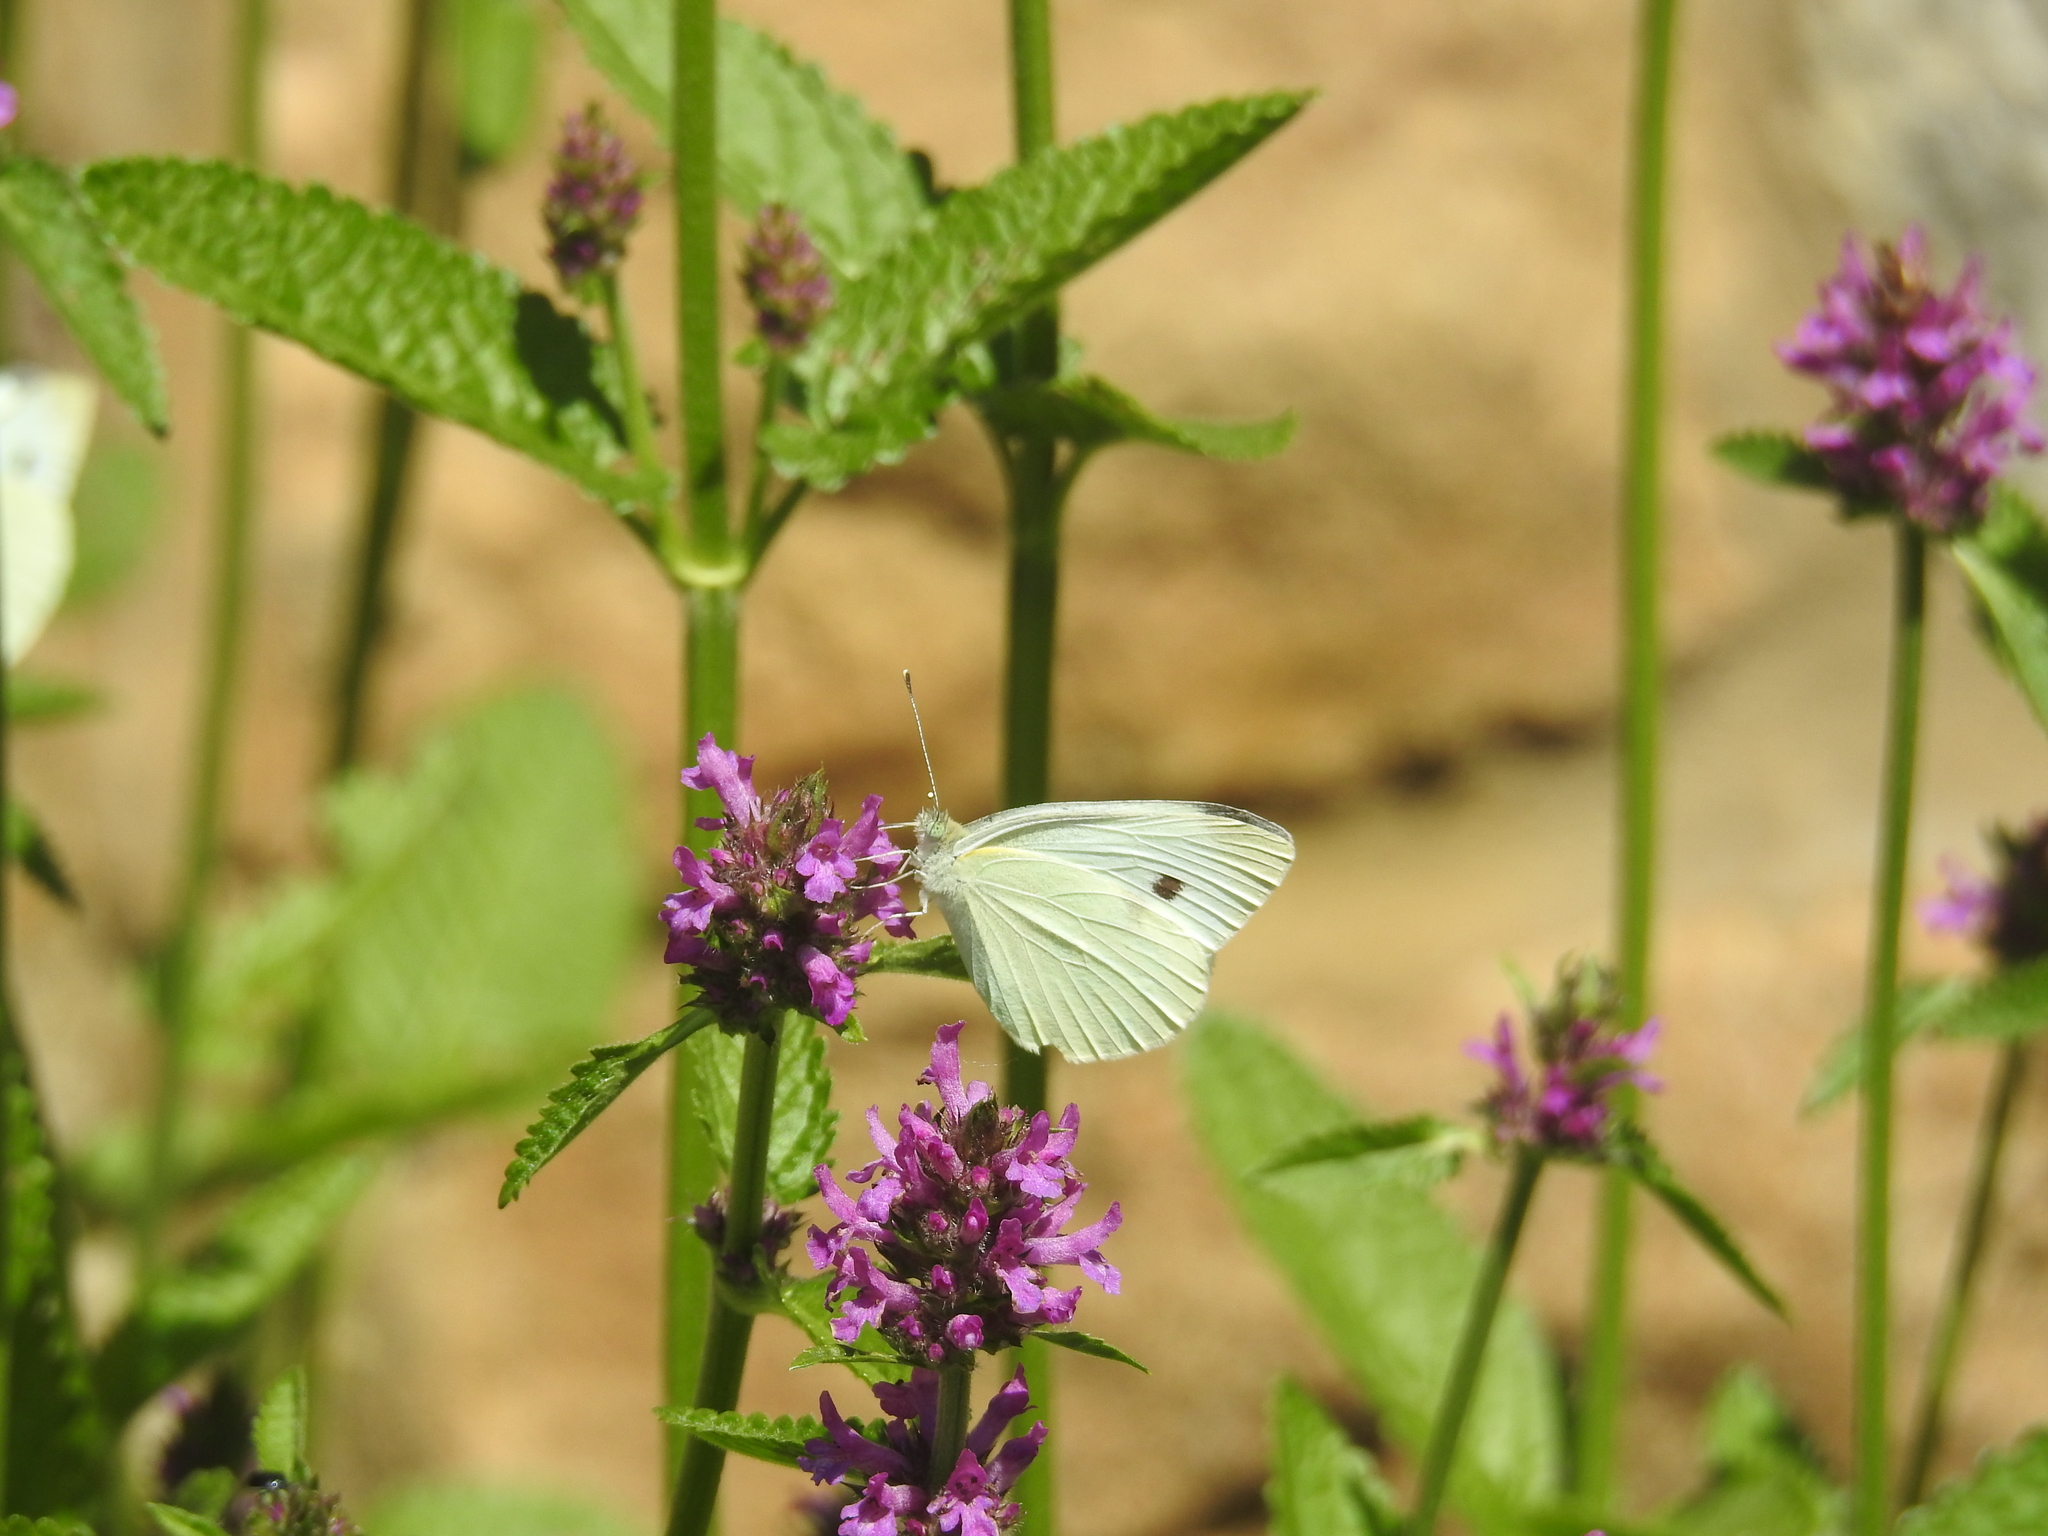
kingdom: Animalia
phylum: Arthropoda
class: Insecta
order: Lepidoptera
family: Pieridae
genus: Pieris
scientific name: Pieris rapae
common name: Small white
